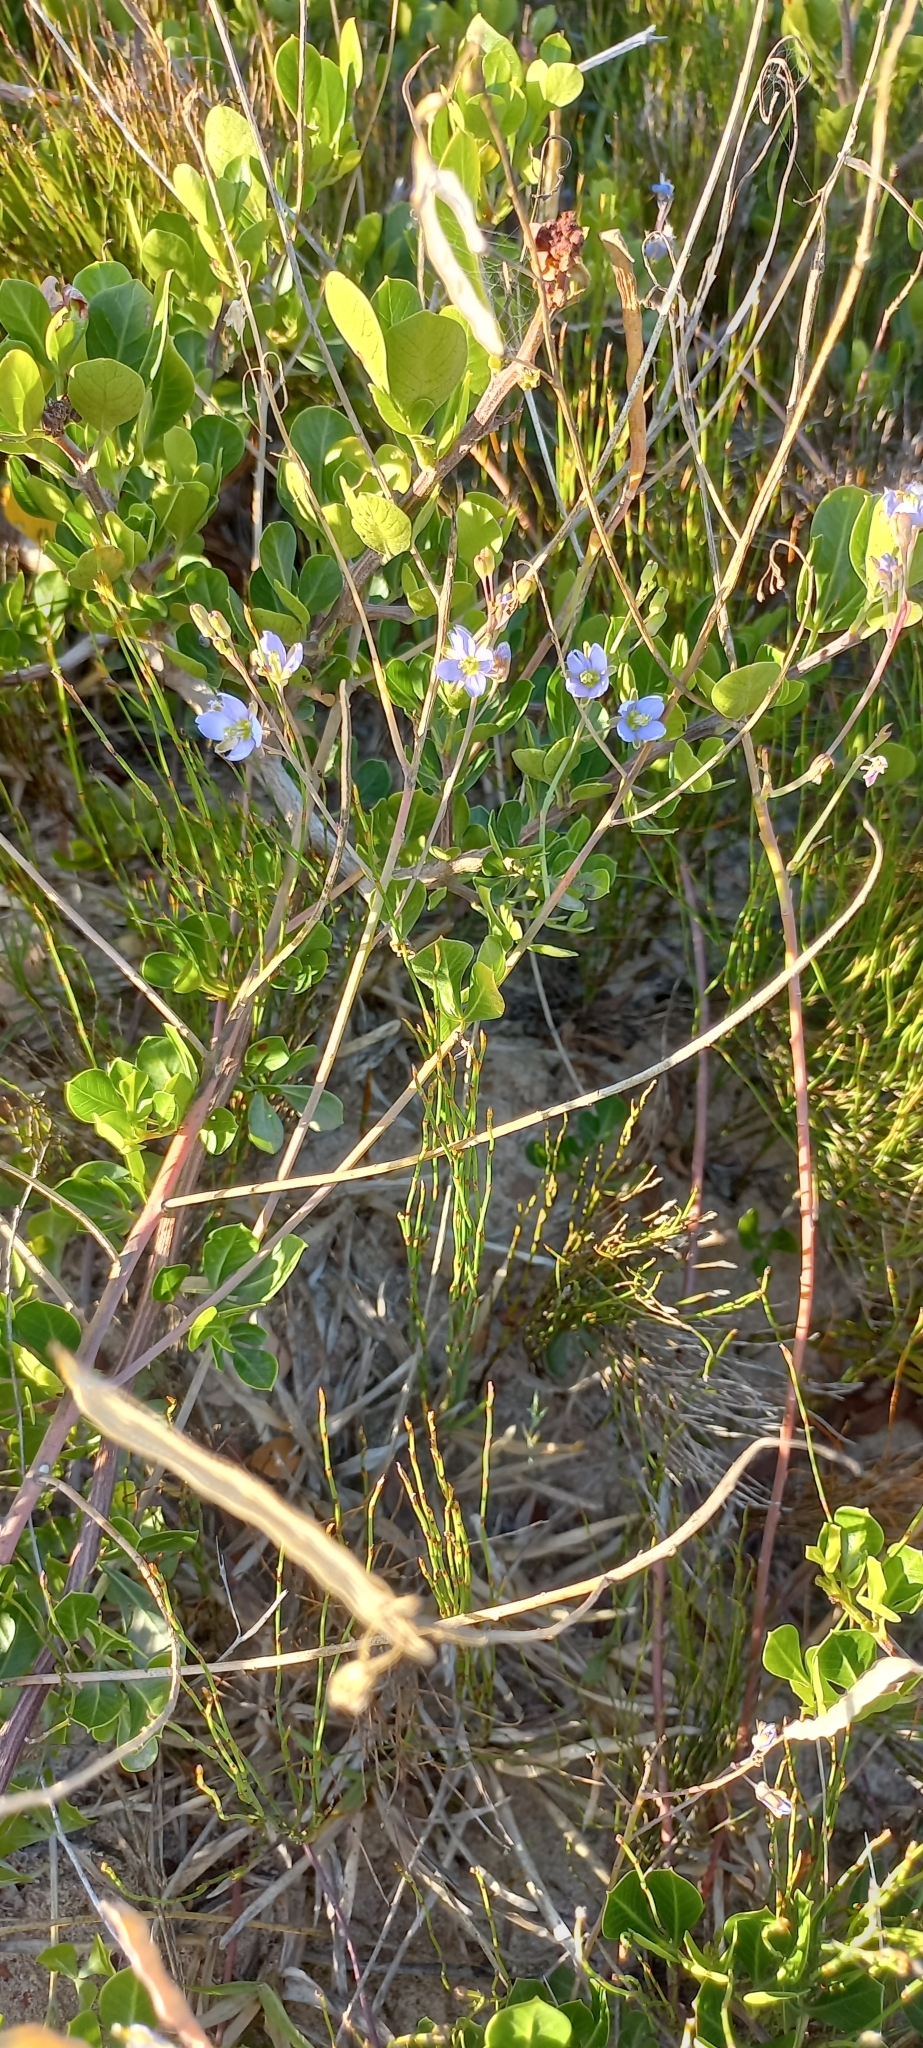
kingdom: Plantae
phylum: Tracheophyta
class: Magnoliopsida
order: Brassicales
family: Brassicaceae
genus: Heliophila
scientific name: Heliophila linearis
